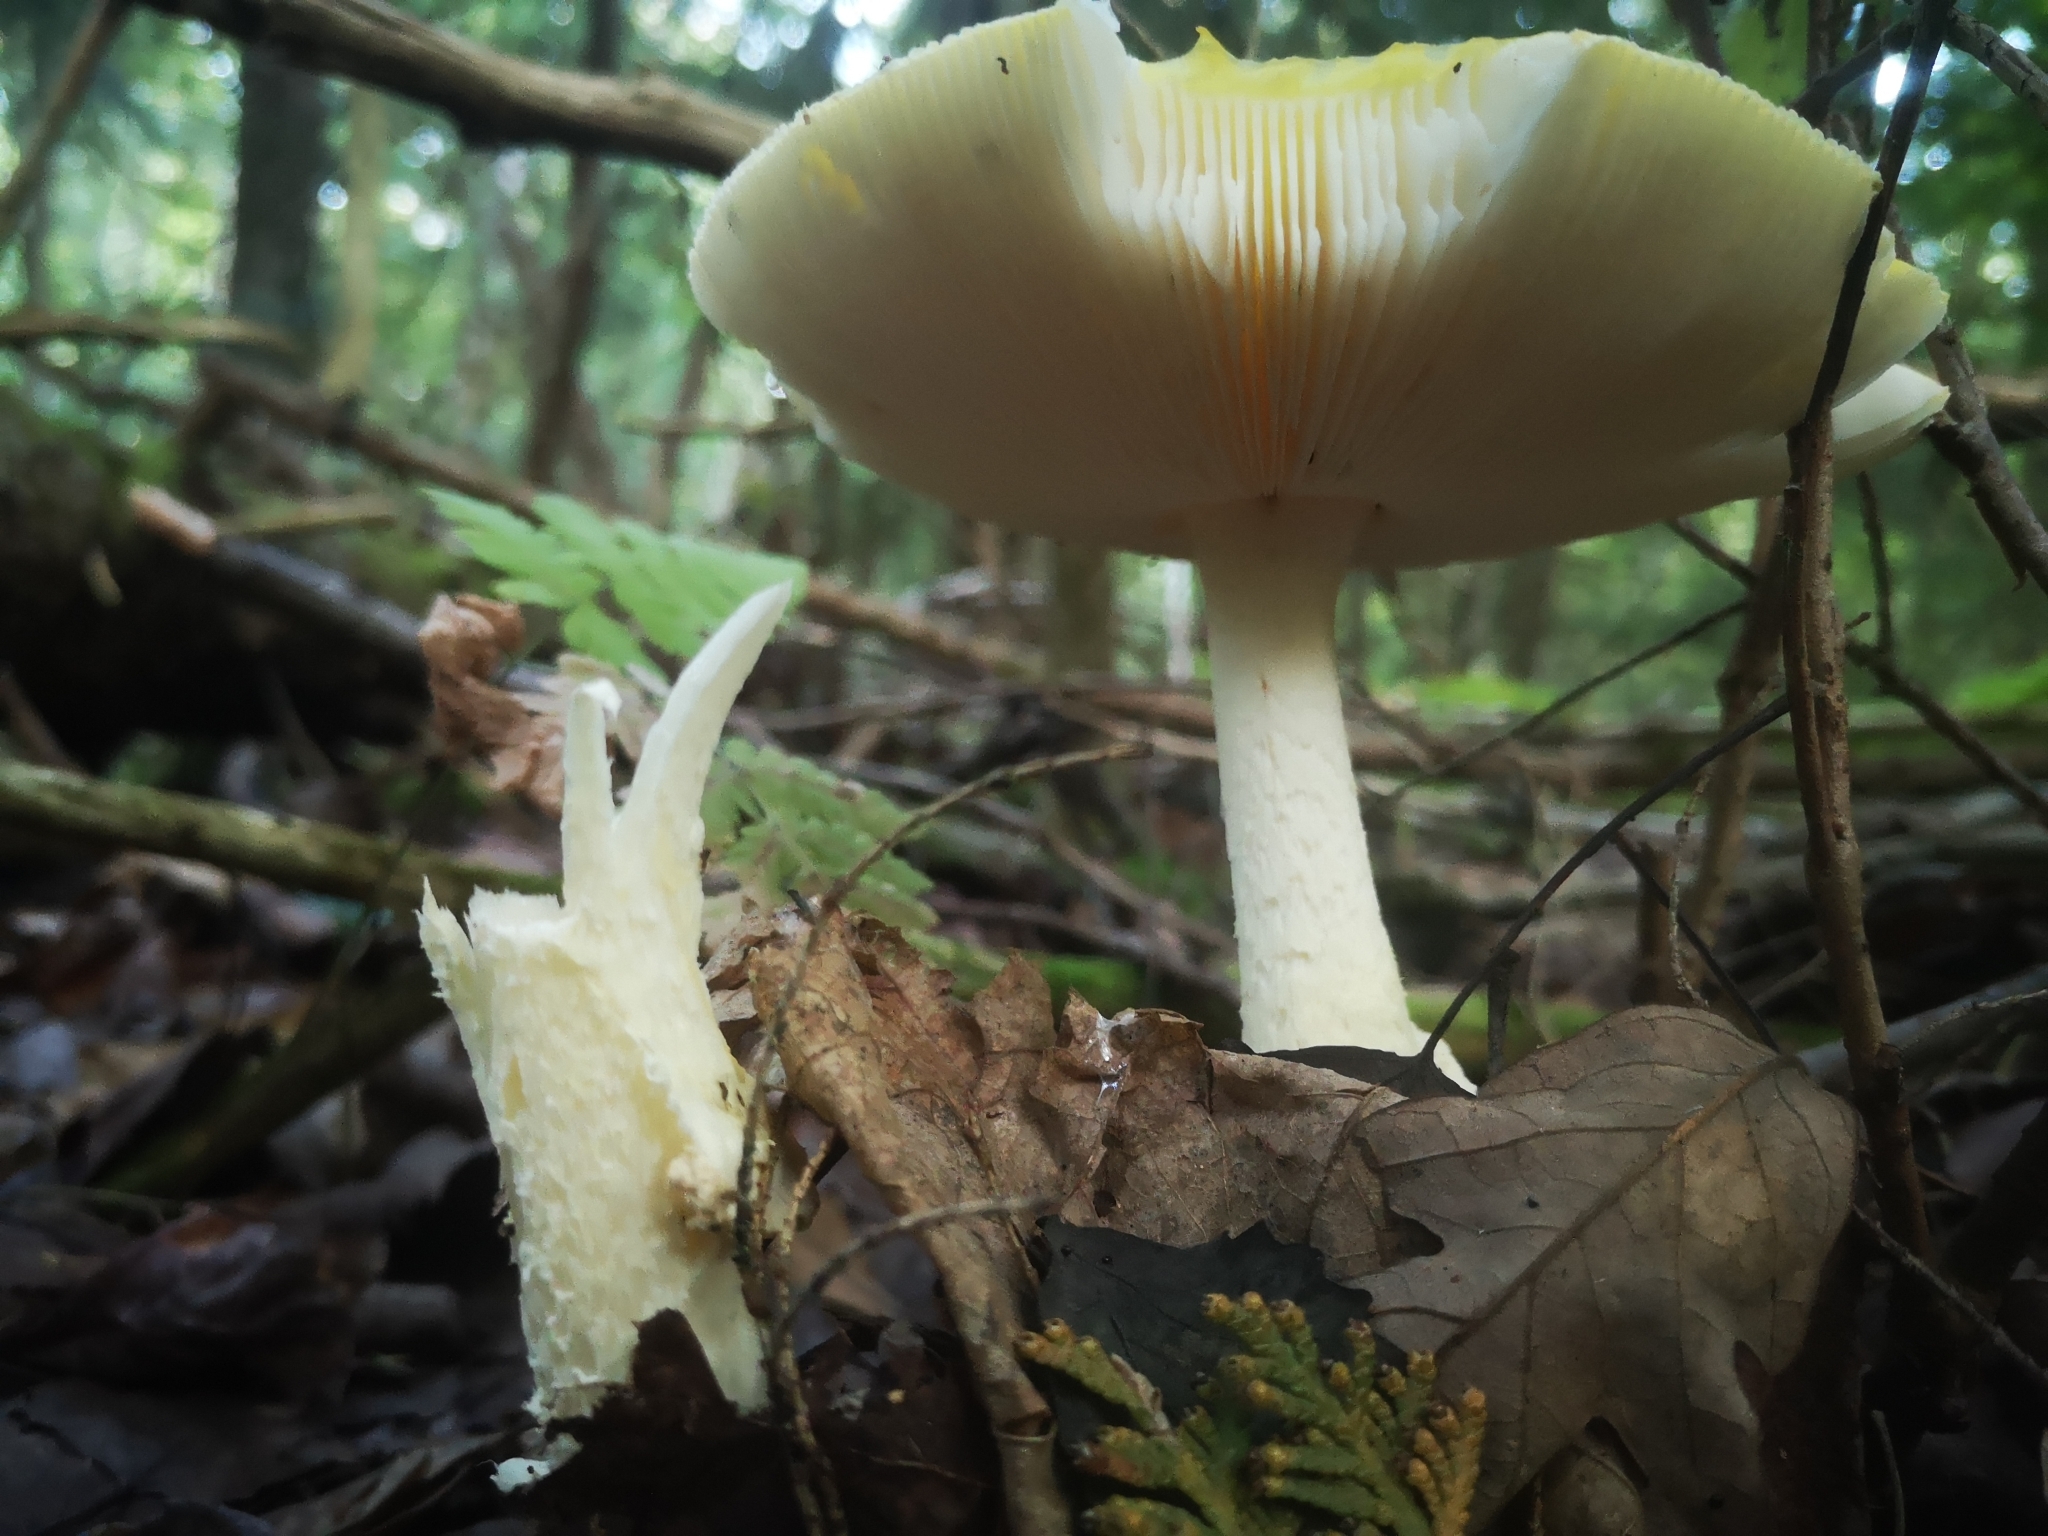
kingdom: Fungi
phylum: Basidiomycota
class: Agaricomycetes
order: Agaricales
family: Amanitaceae
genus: Amanita
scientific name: Amanita muscaria
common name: Fly agaric
